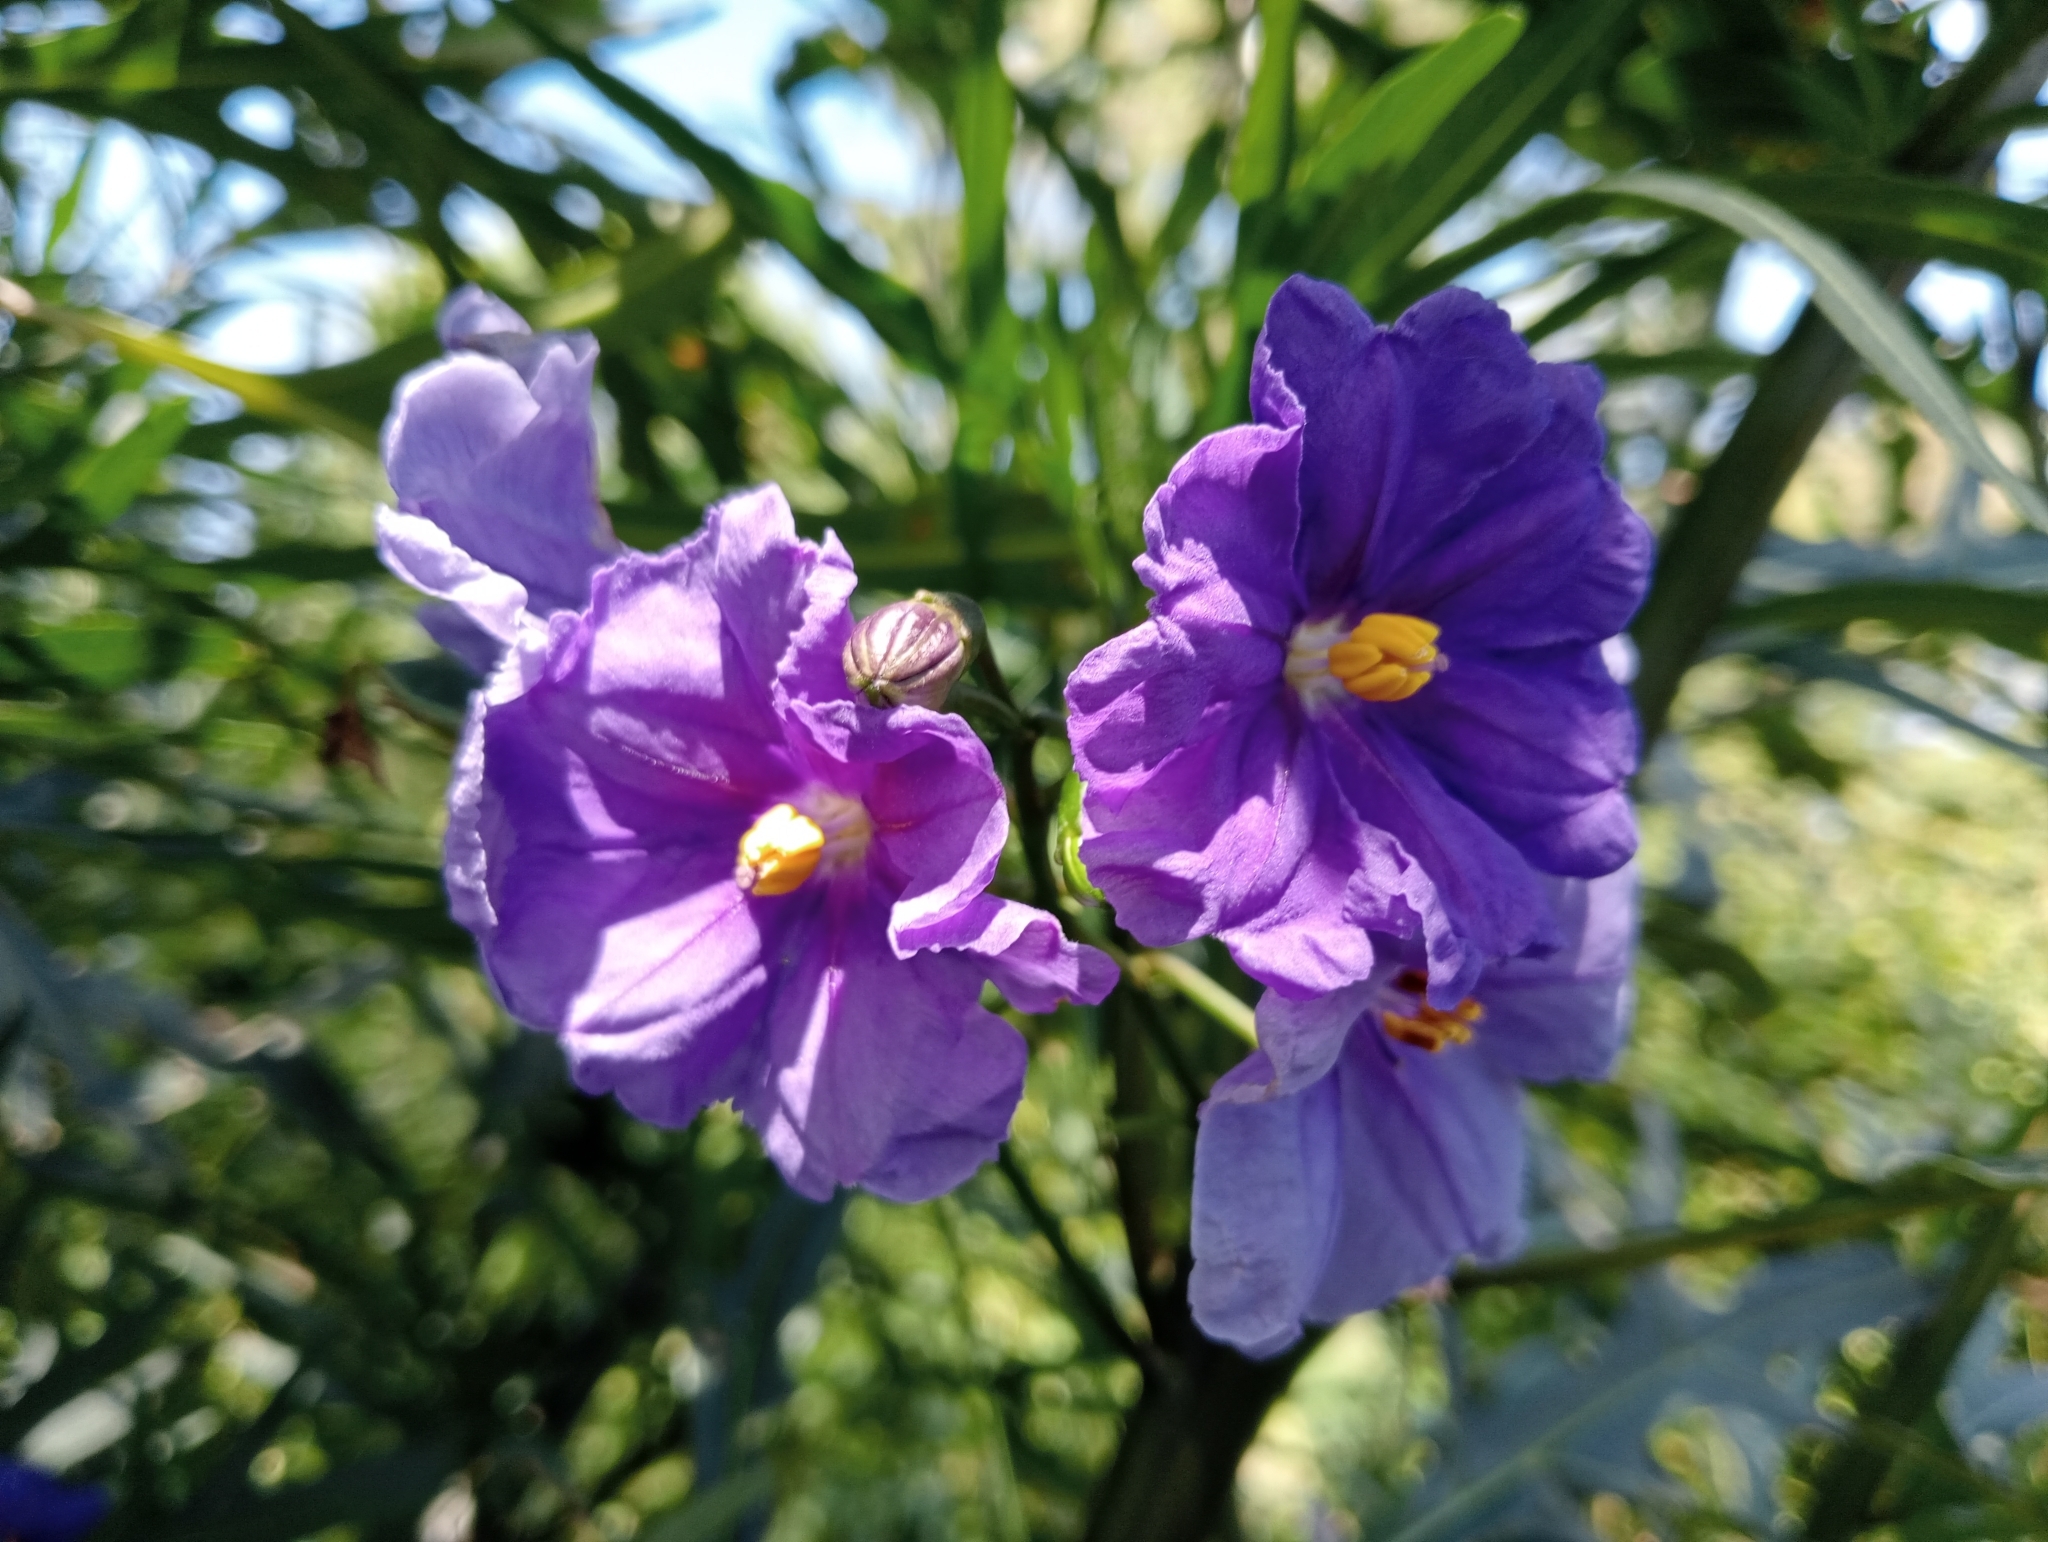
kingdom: Plantae
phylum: Tracheophyta
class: Magnoliopsida
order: Solanales
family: Solanaceae
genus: Solanum
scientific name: Solanum laciniatum
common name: Kangaroo-apple
